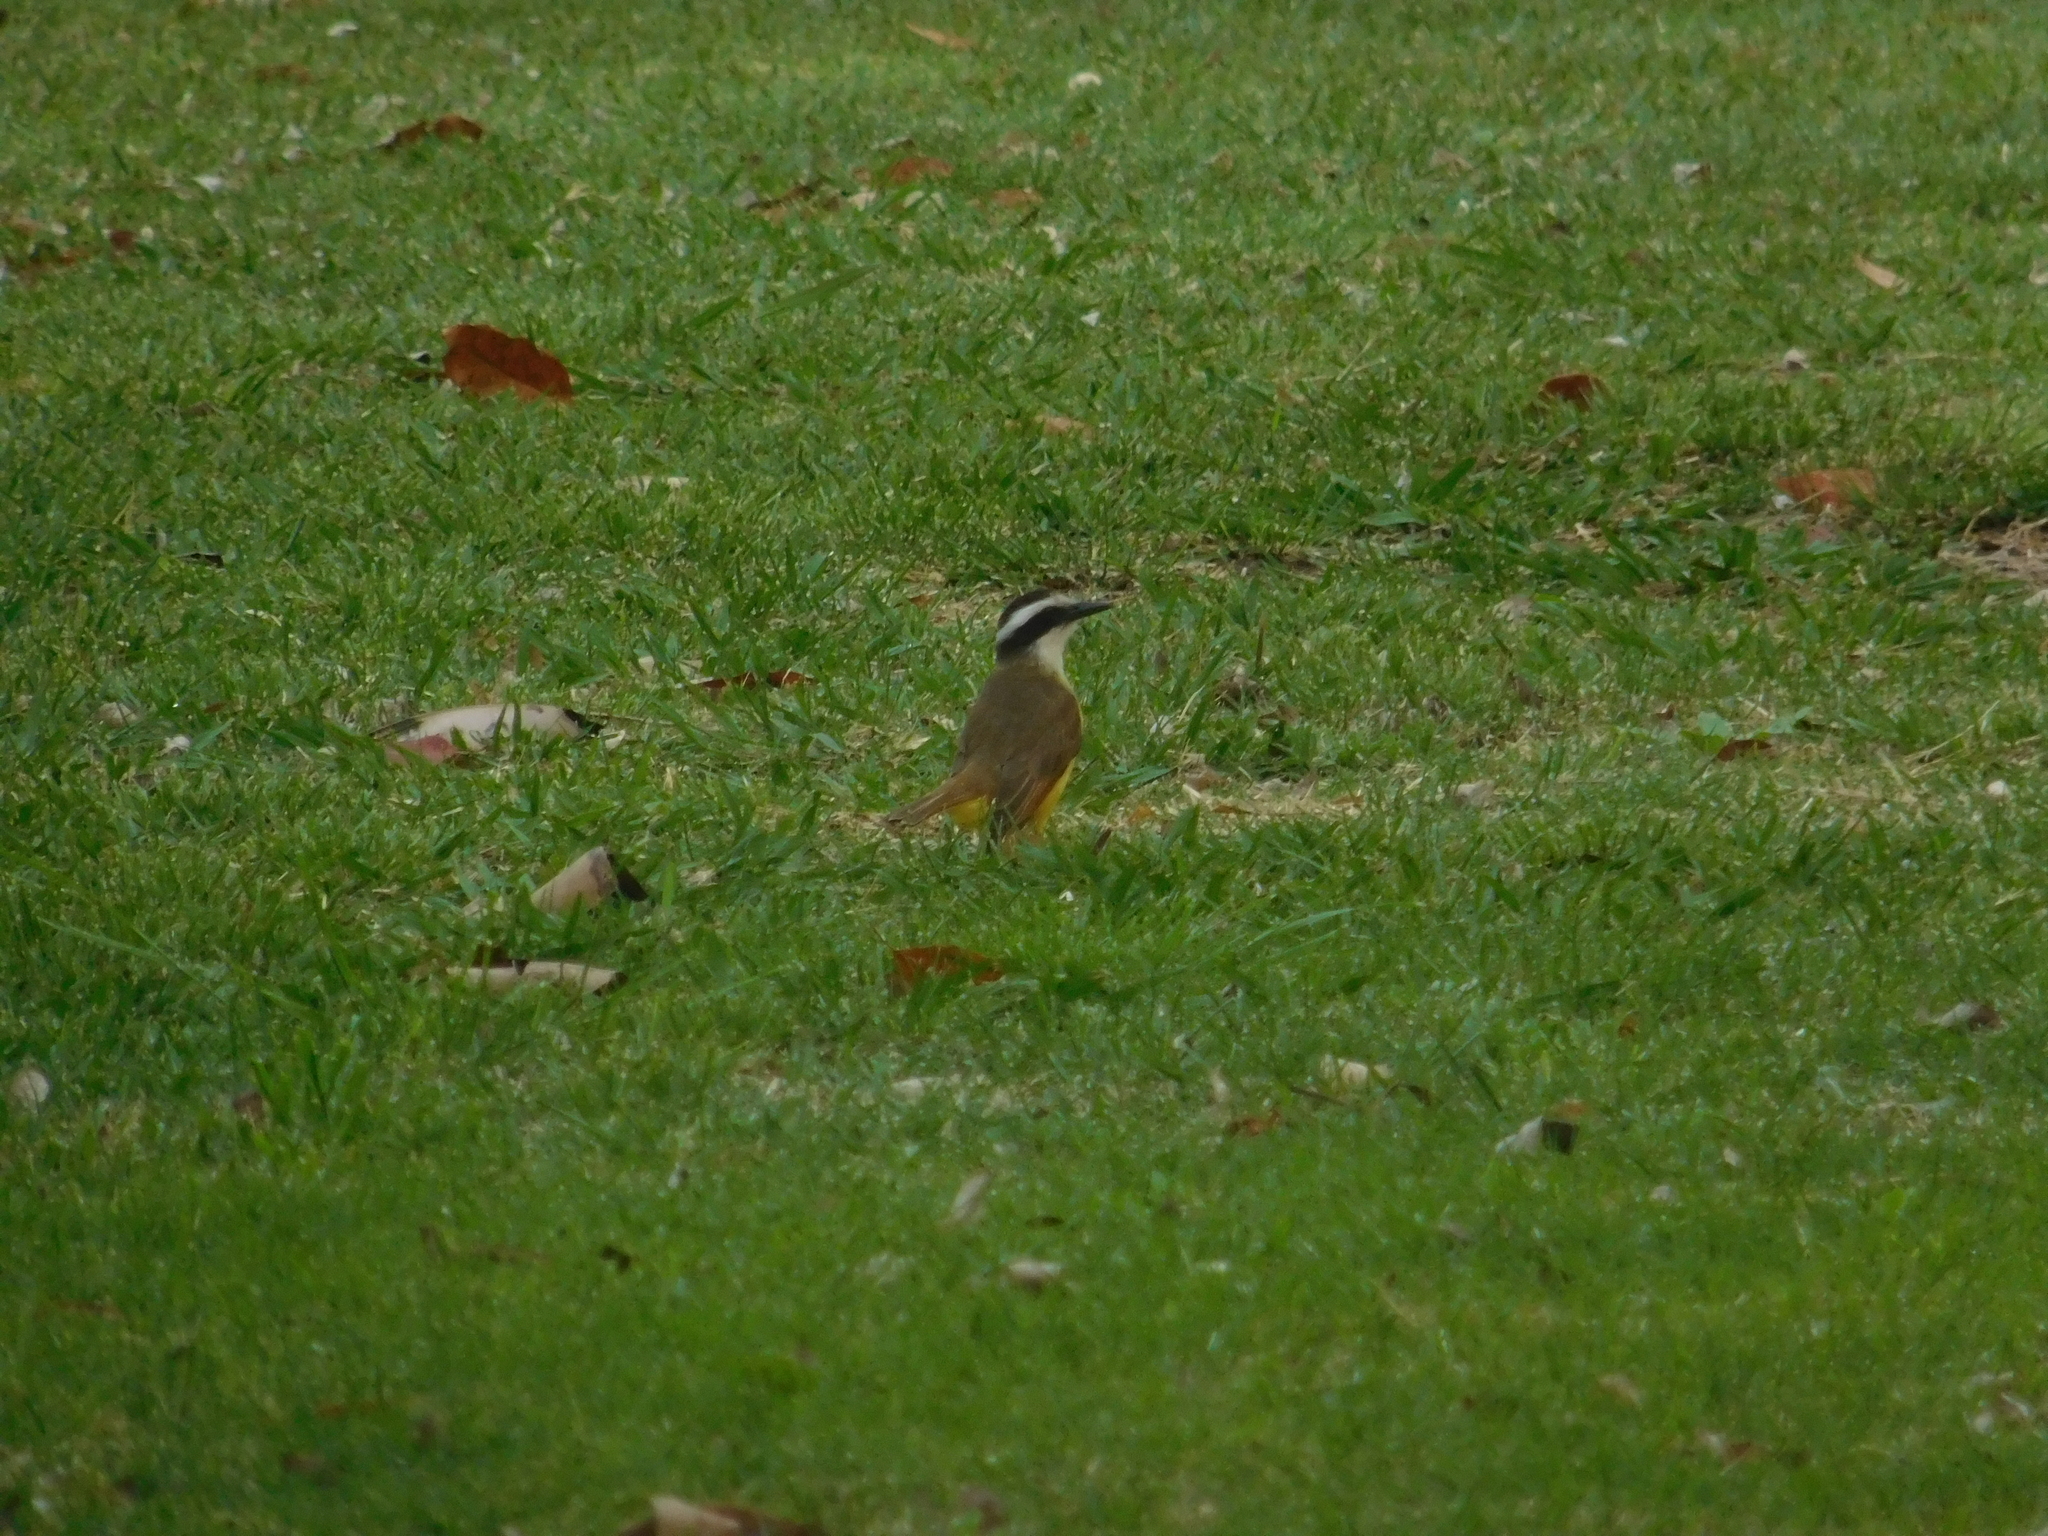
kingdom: Animalia
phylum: Chordata
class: Aves
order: Passeriformes
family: Tyrannidae
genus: Pitangus
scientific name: Pitangus sulphuratus
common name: Great kiskadee
